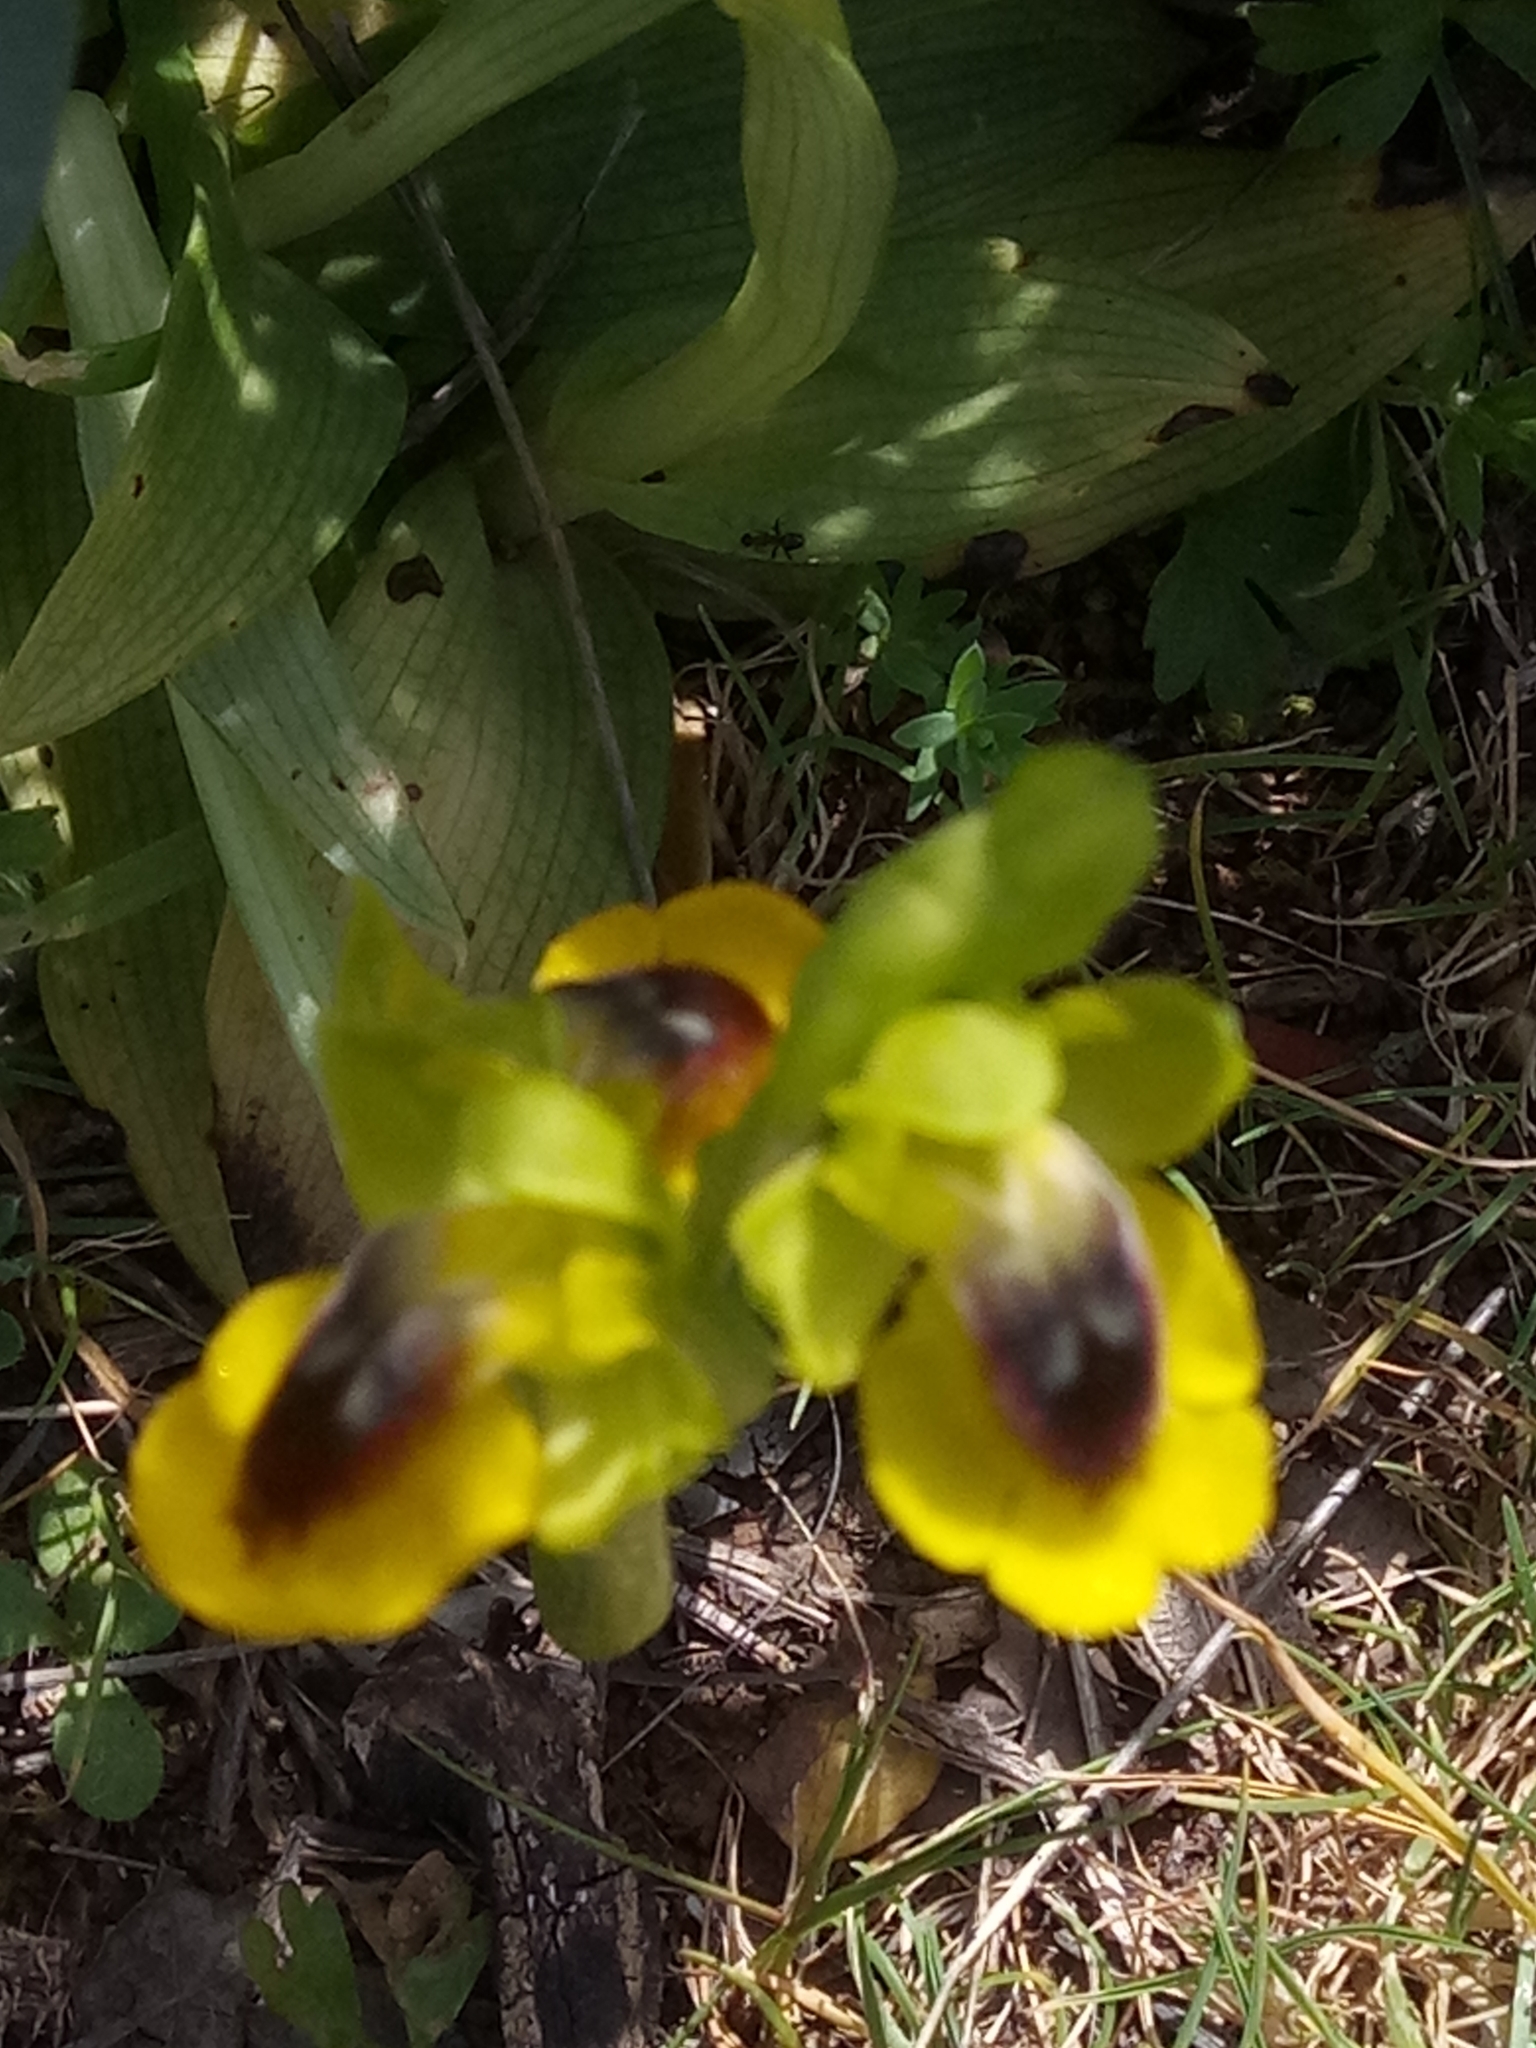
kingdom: Plantae
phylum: Tracheophyta
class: Liliopsida
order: Asparagales
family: Orchidaceae
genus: Ophrys
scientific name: Ophrys lutea
